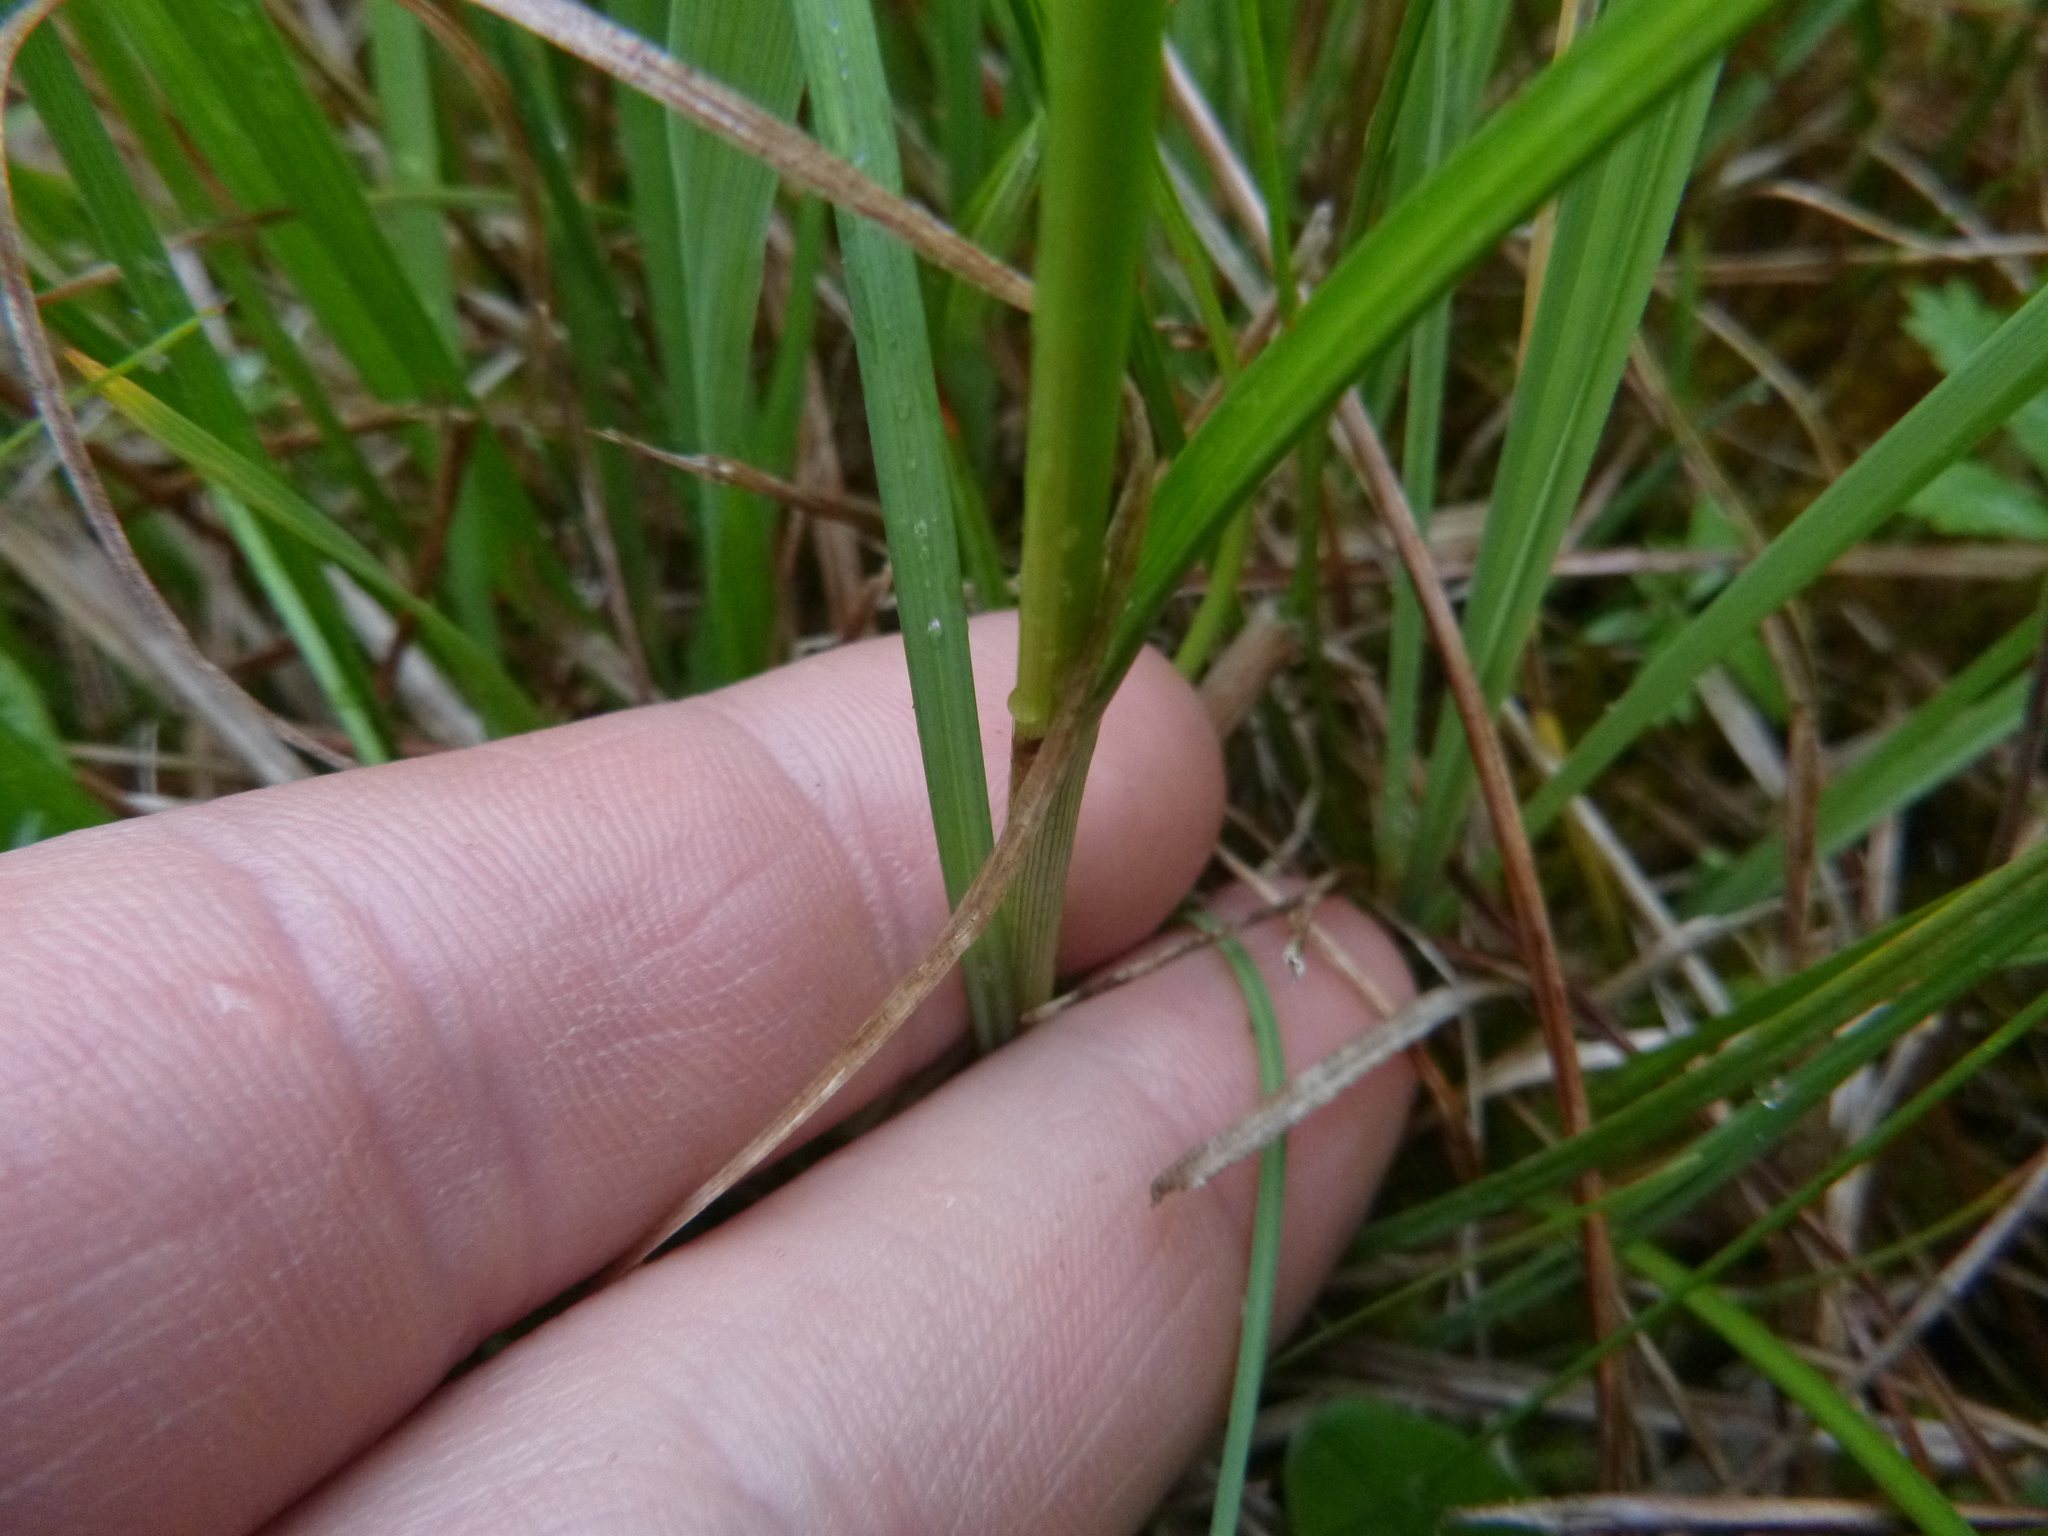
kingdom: Plantae
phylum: Tracheophyta
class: Liliopsida
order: Poales
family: Cyperaceae
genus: Eriophorum
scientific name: Eriophorum angustifolium
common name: Common cottongrass
